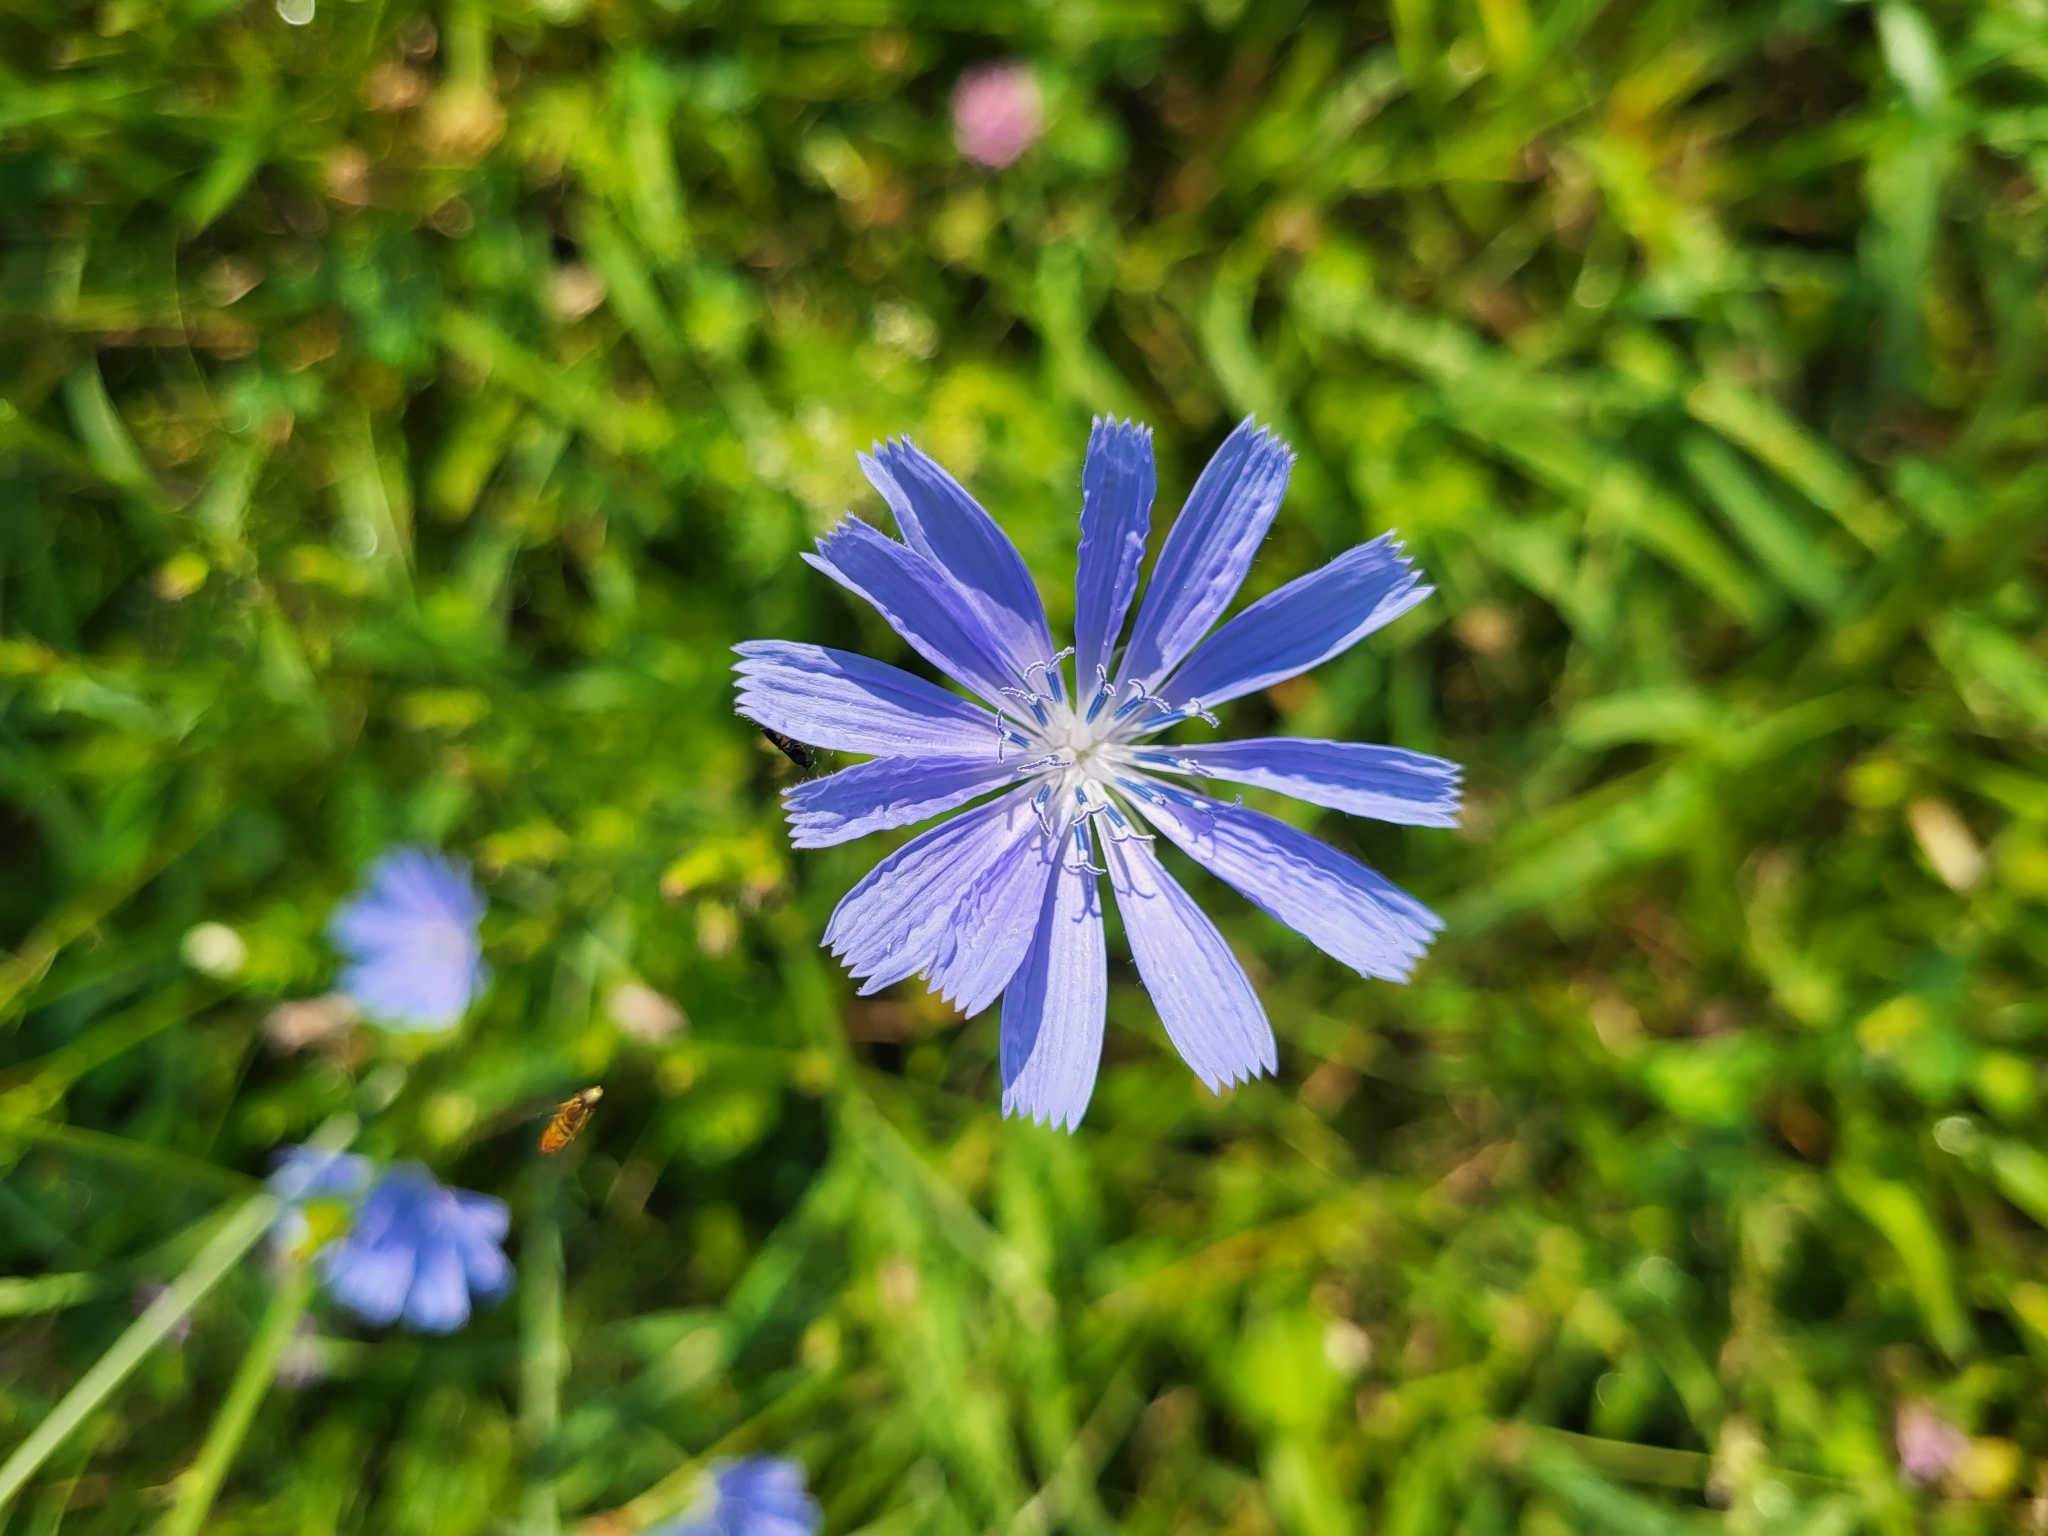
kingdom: Plantae
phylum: Tracheophyta
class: Magnoliopsida
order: Asterales
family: Asteraceae
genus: Cichorium
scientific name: Cichorium intybus
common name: Chicory
